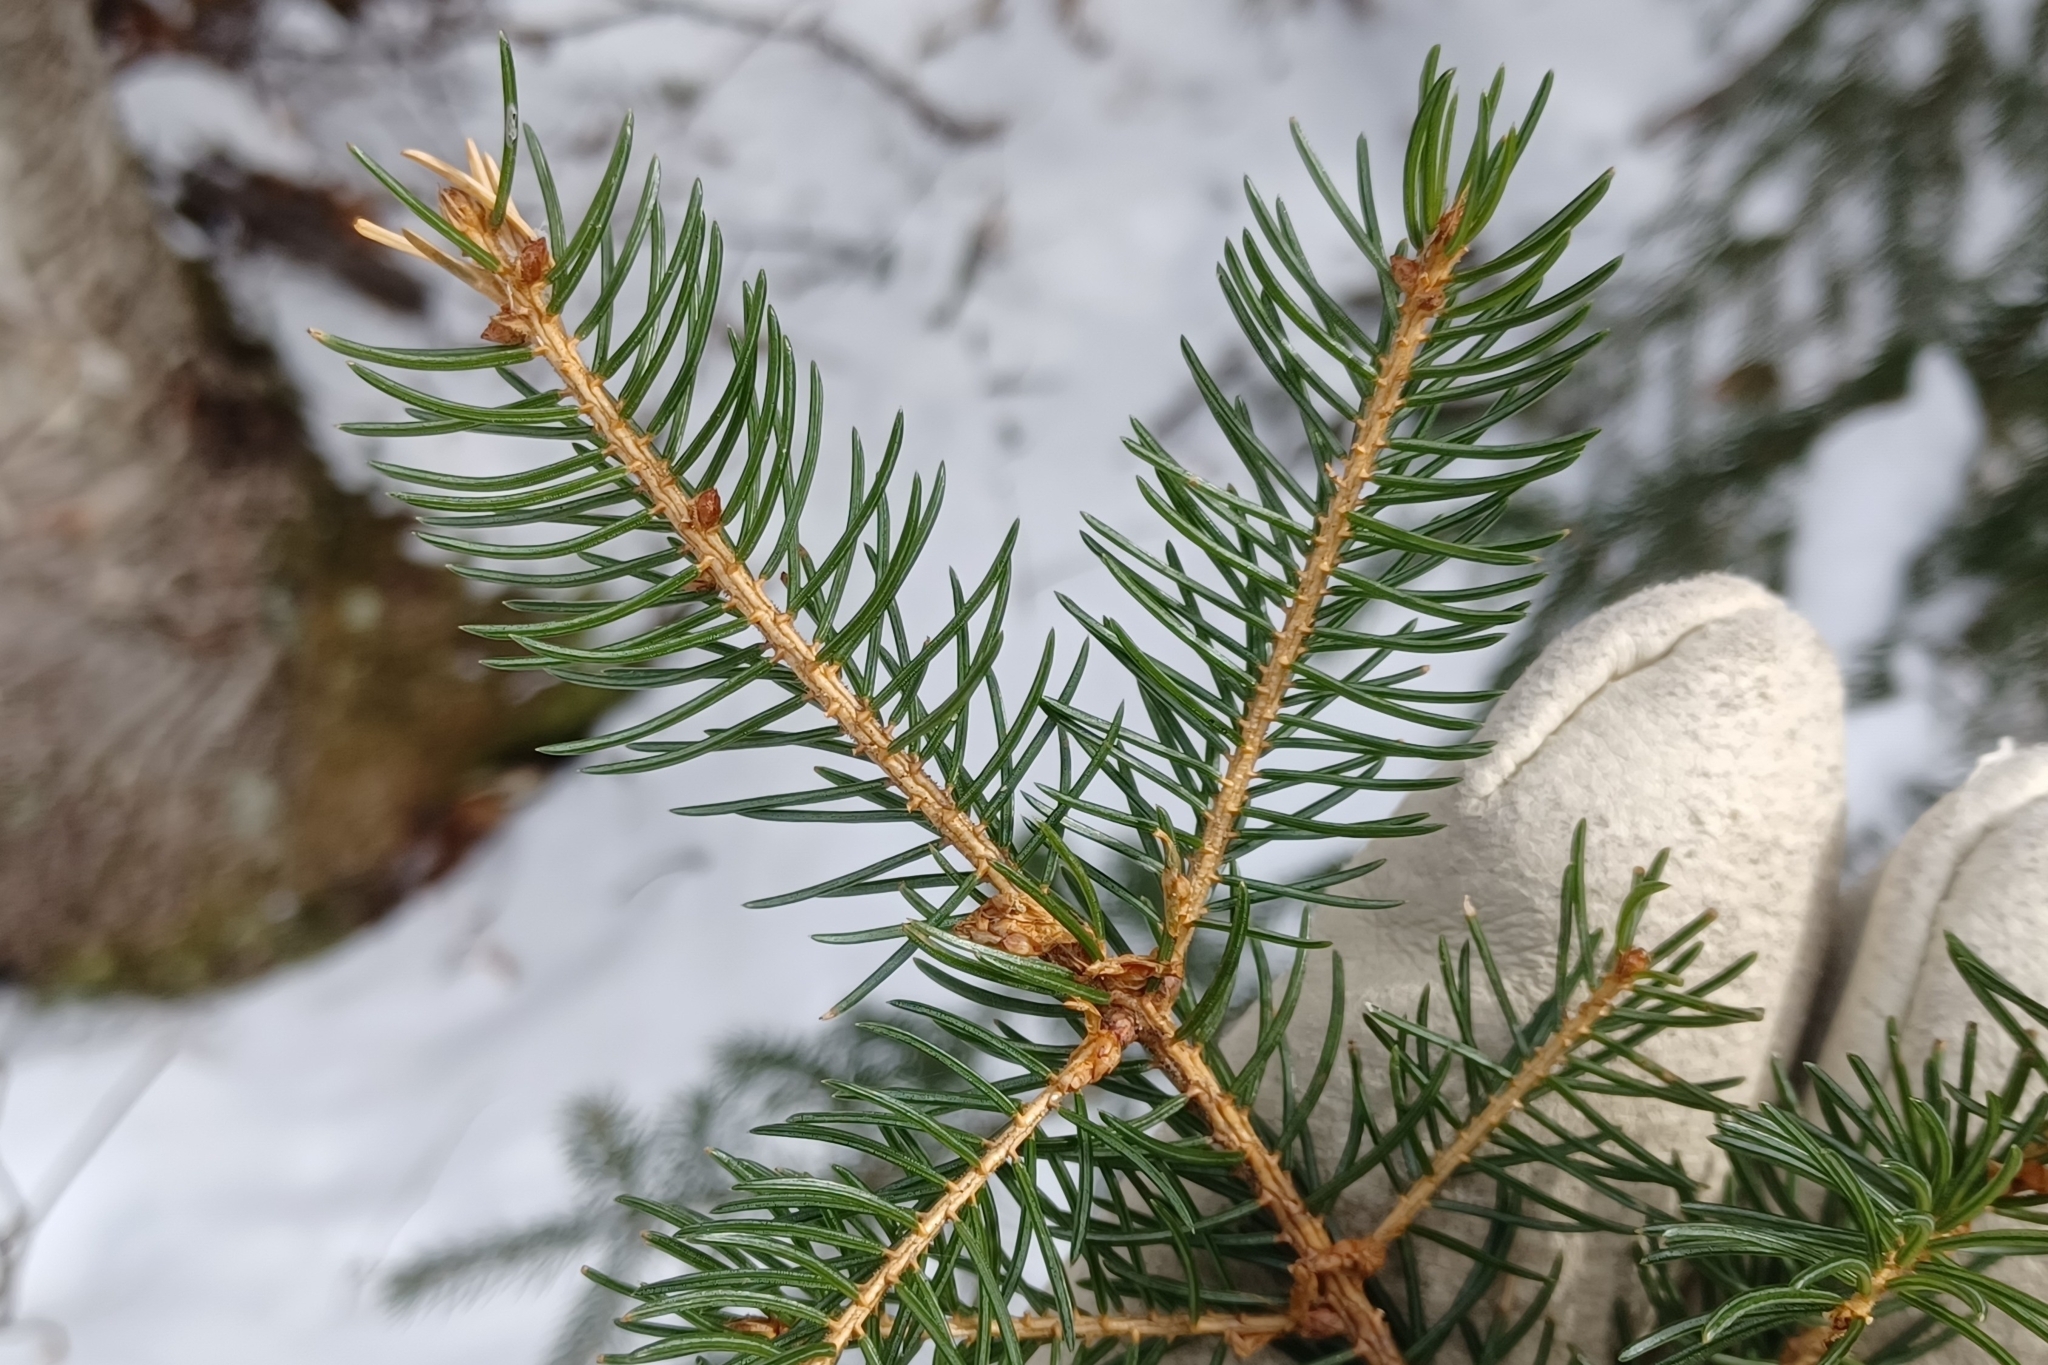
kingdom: Plantae
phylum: Tracheophyta
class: Pinopsida
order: Pinales
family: Pinaceae
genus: Picea
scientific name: Picea rubens
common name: Red spruce
